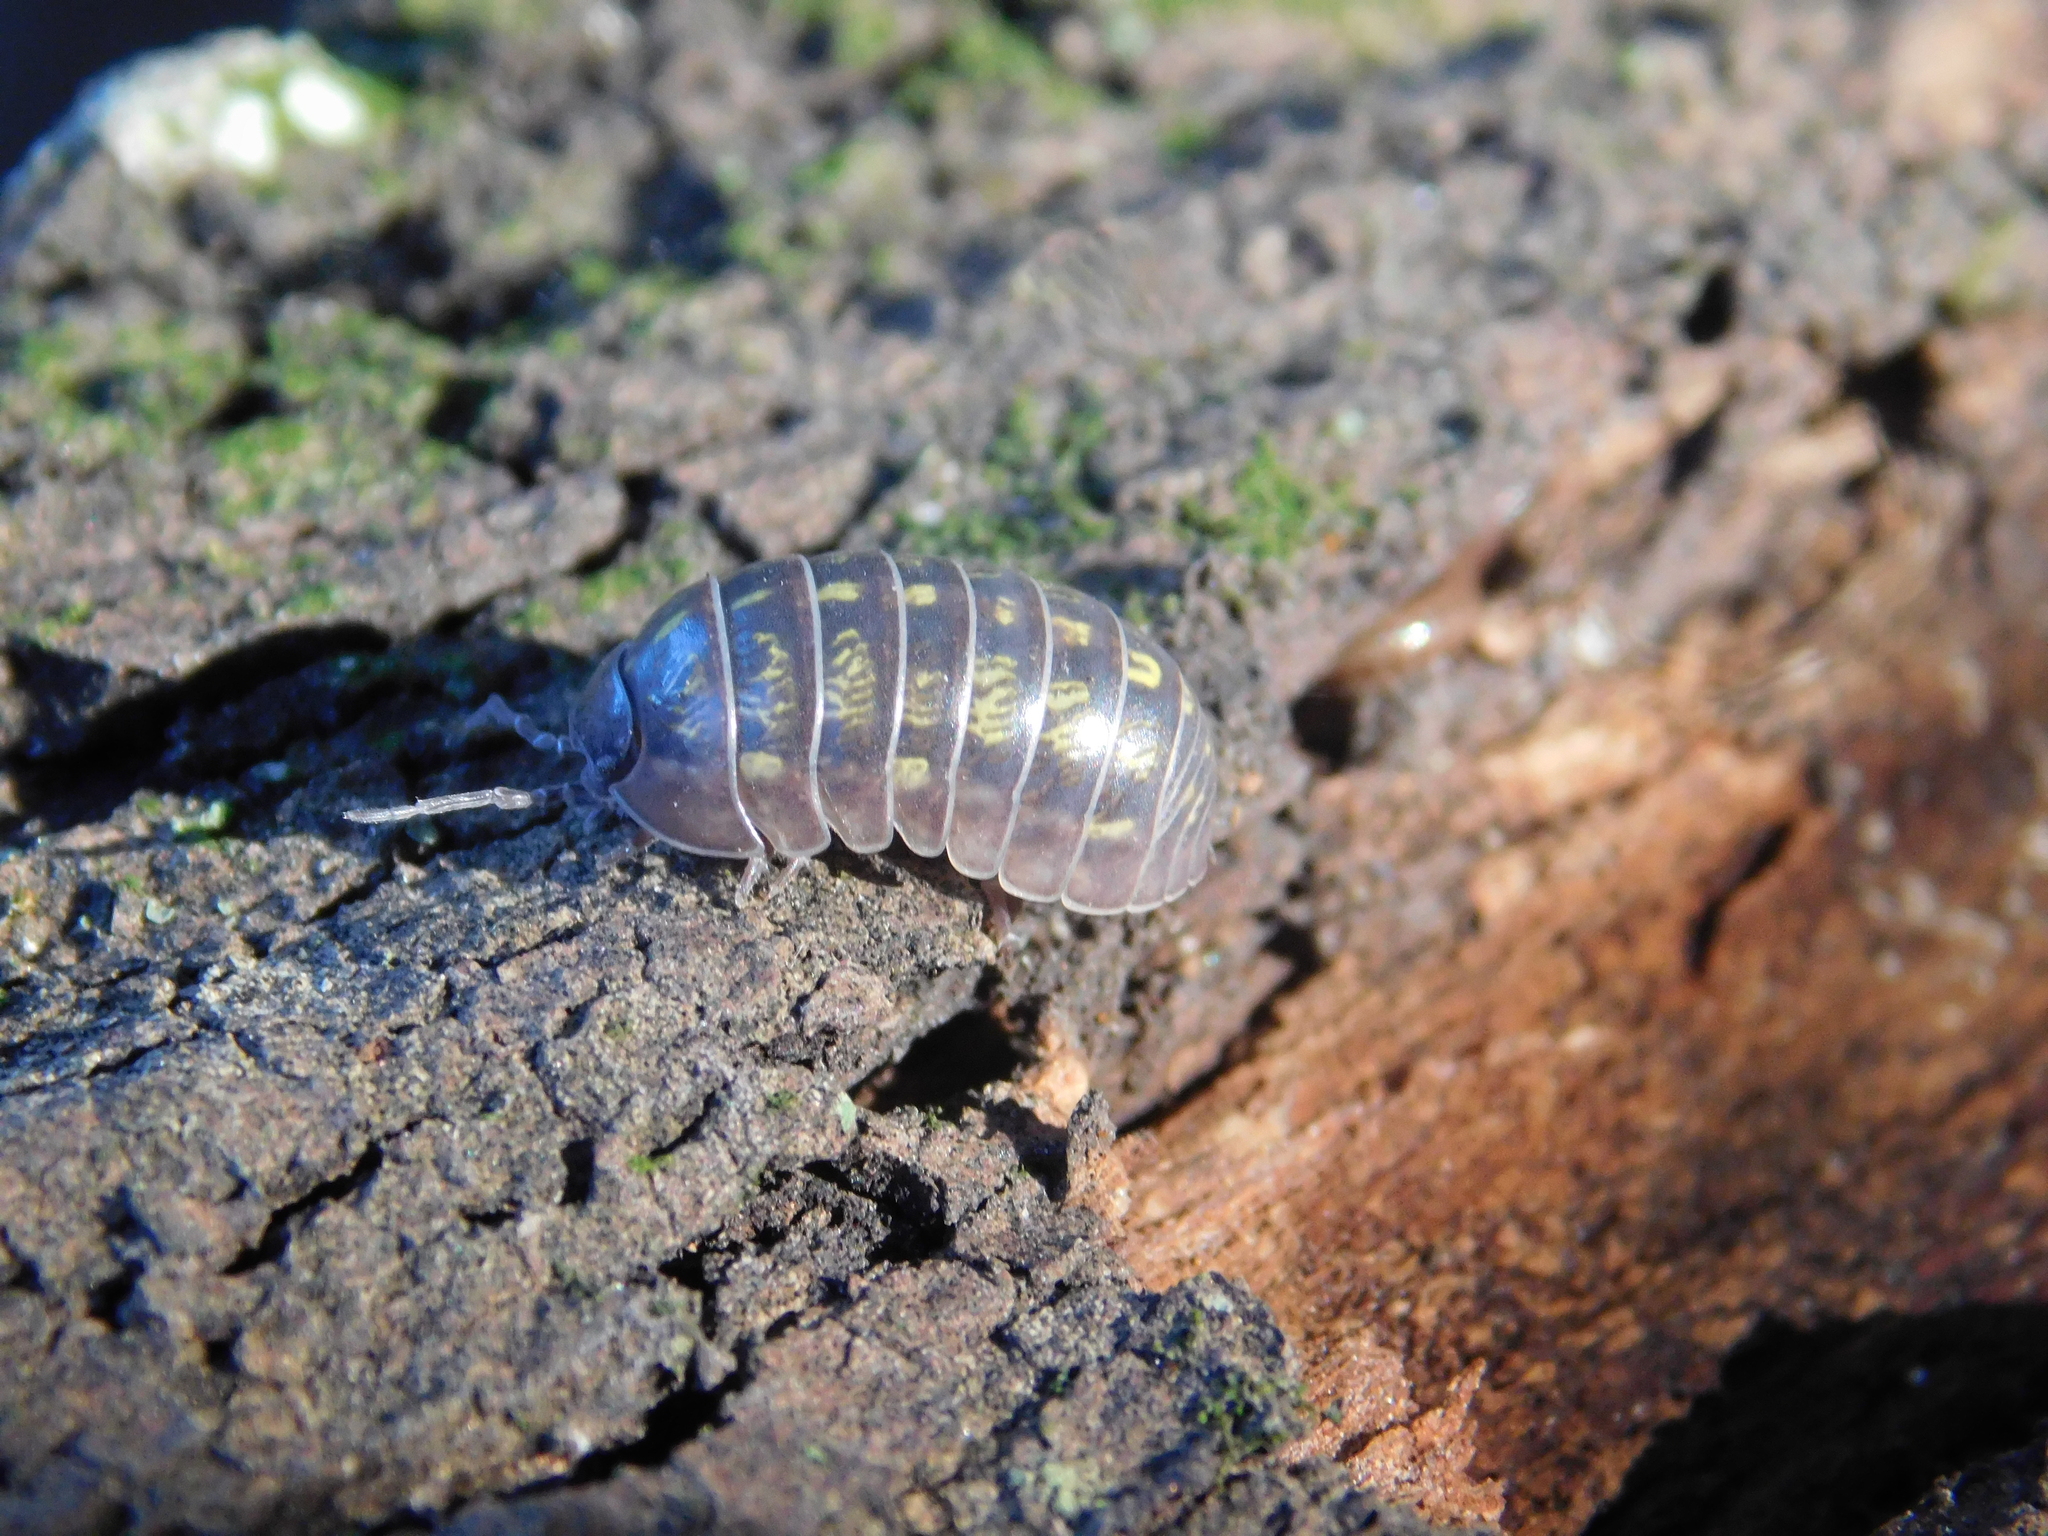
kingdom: Animalia
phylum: Arthropoda
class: Malacostraca
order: Isopoda
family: Armadillidiidae
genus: Armadillidium
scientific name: Armadillidium vulgare
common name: Common pill woodlouse
